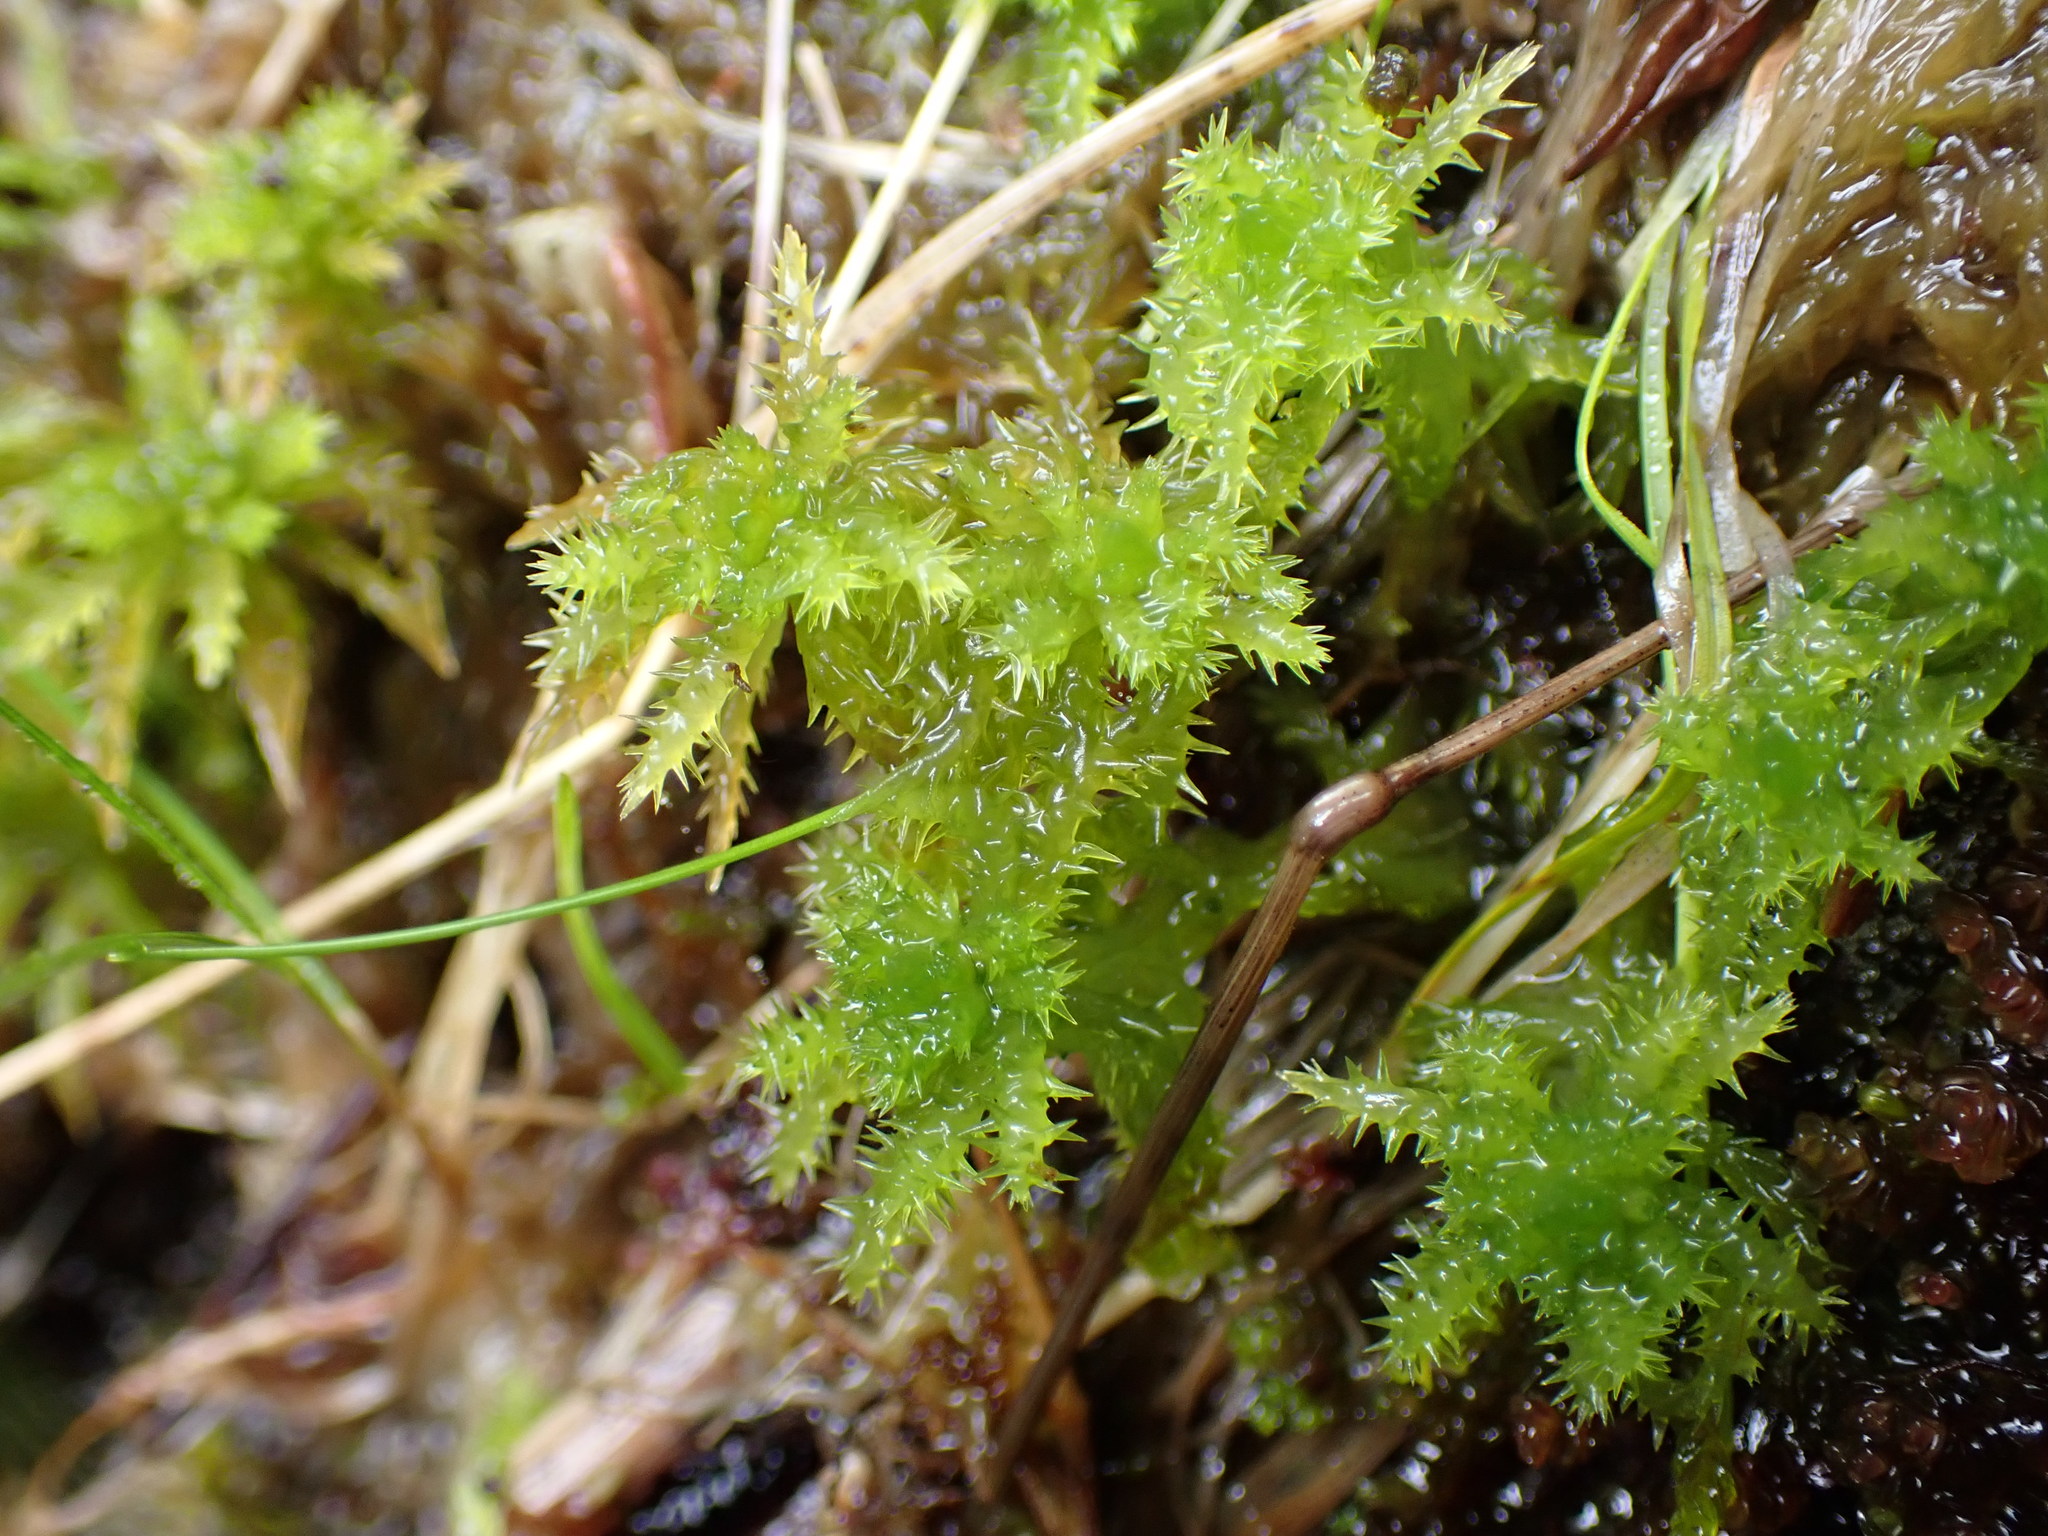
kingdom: Plantae
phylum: Bryophyta
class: Sphagnopsida
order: Sphagnales
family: Sphagnaceae
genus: Sphagnum
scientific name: Sphagnum squarrosum
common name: Shaggy peat moss
